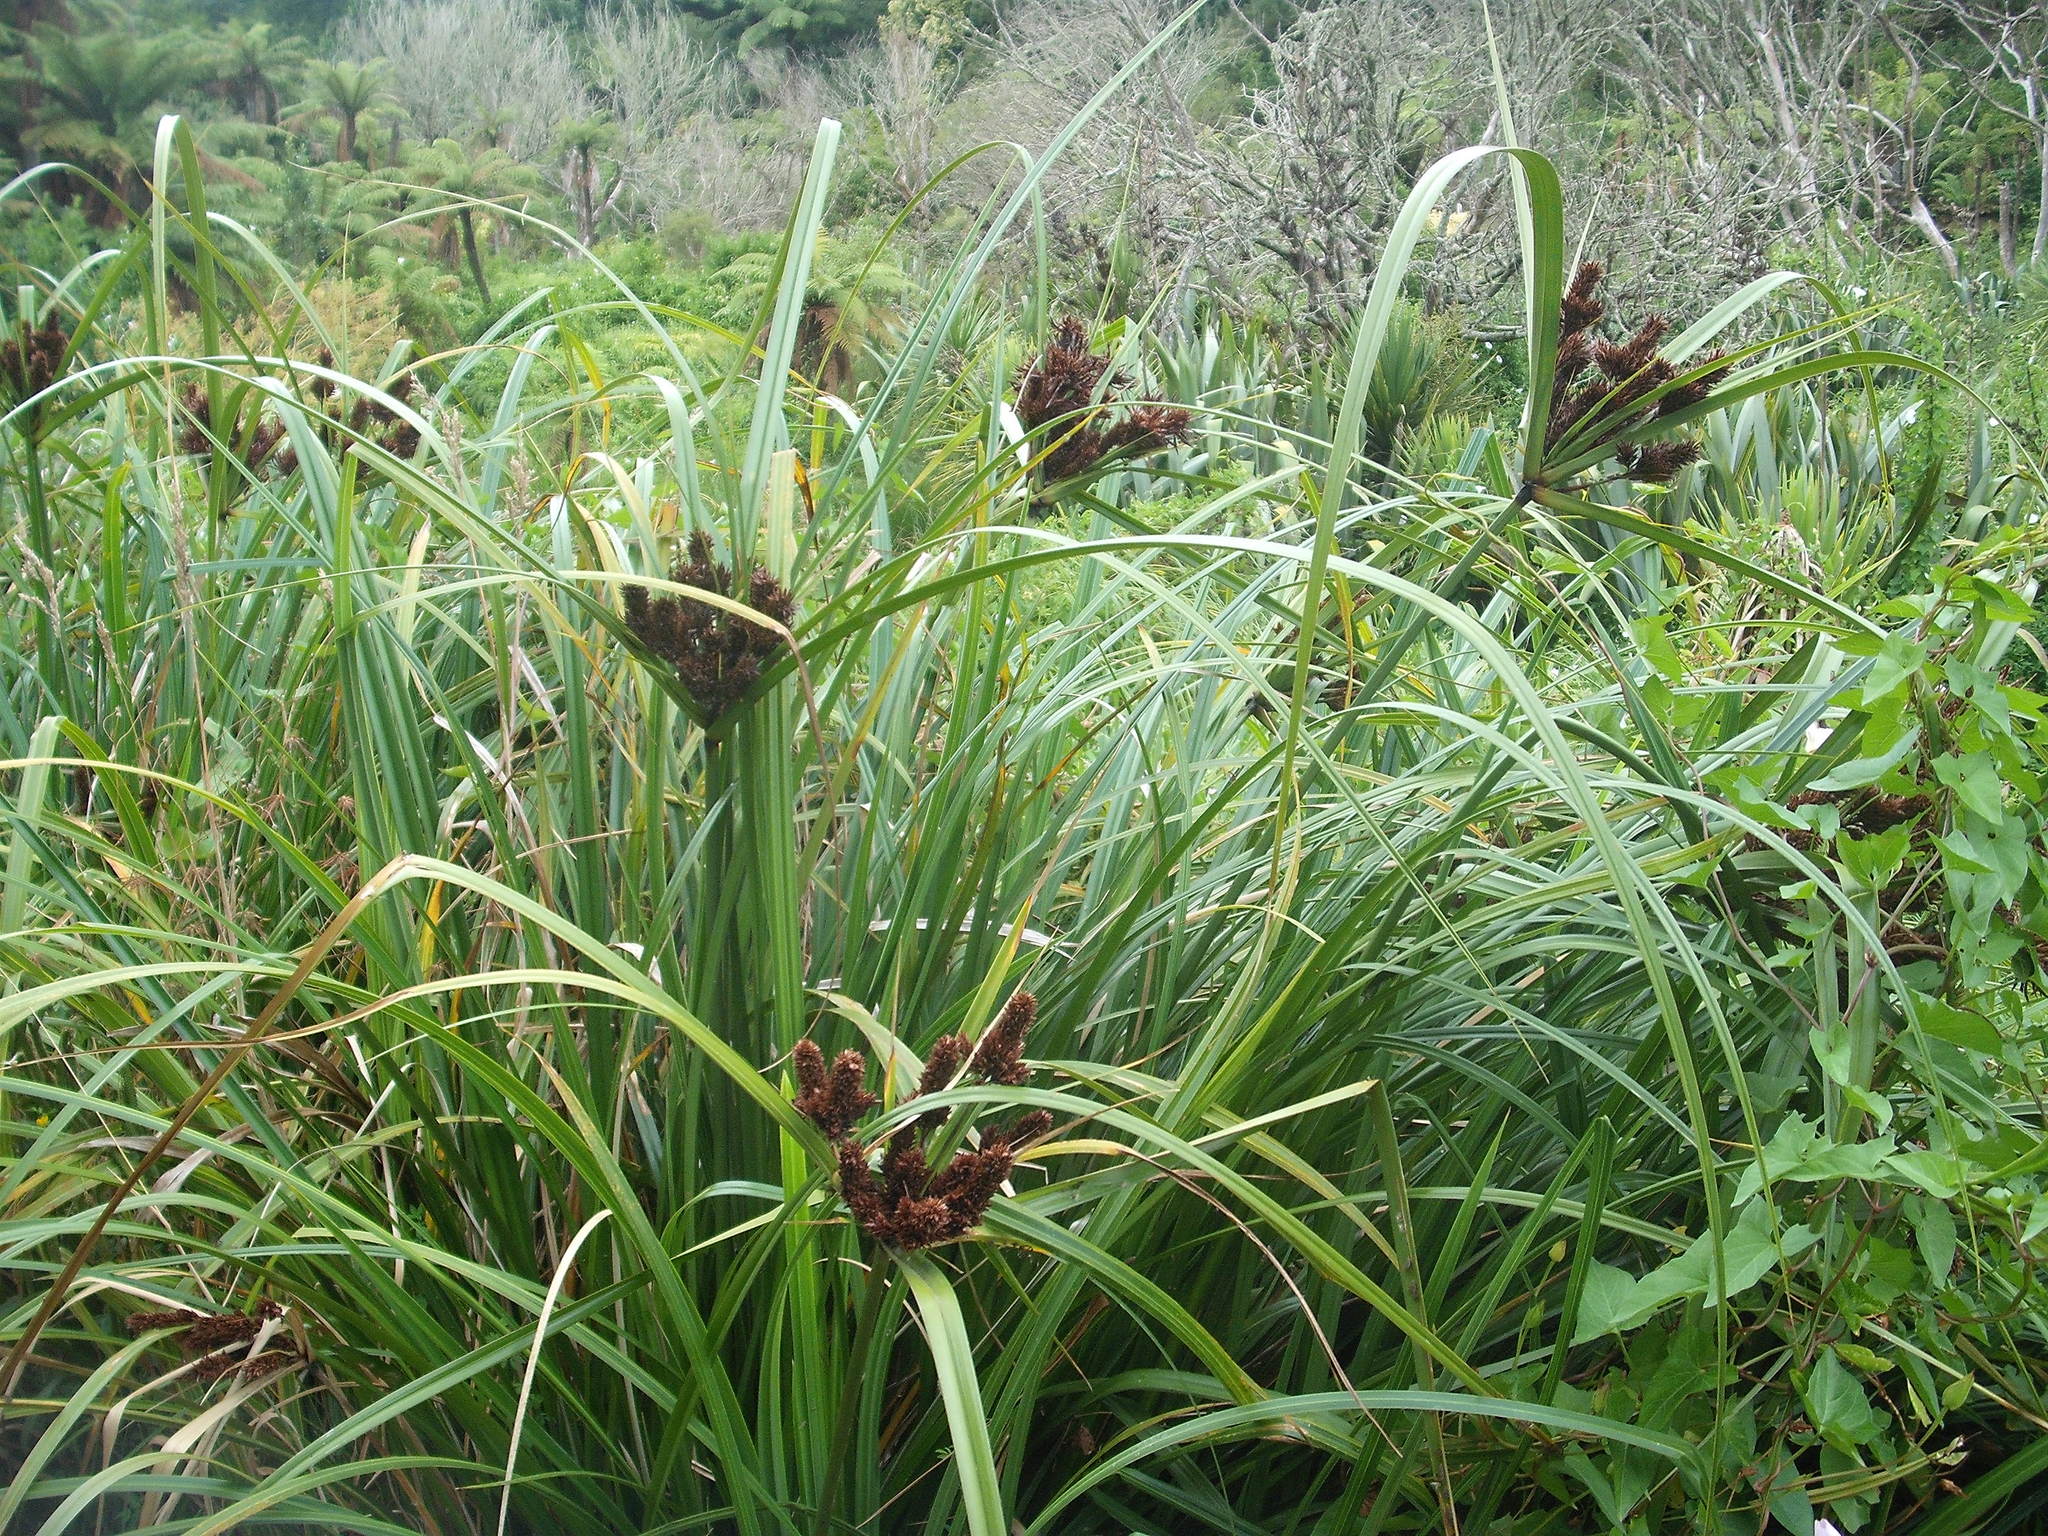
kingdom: Plantae
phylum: Tracheophyta
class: Liliopsida
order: Poales
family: Cyperaceae
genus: Cyperus
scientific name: Cyperus ustulatus
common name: Giant umbrella-sedge
